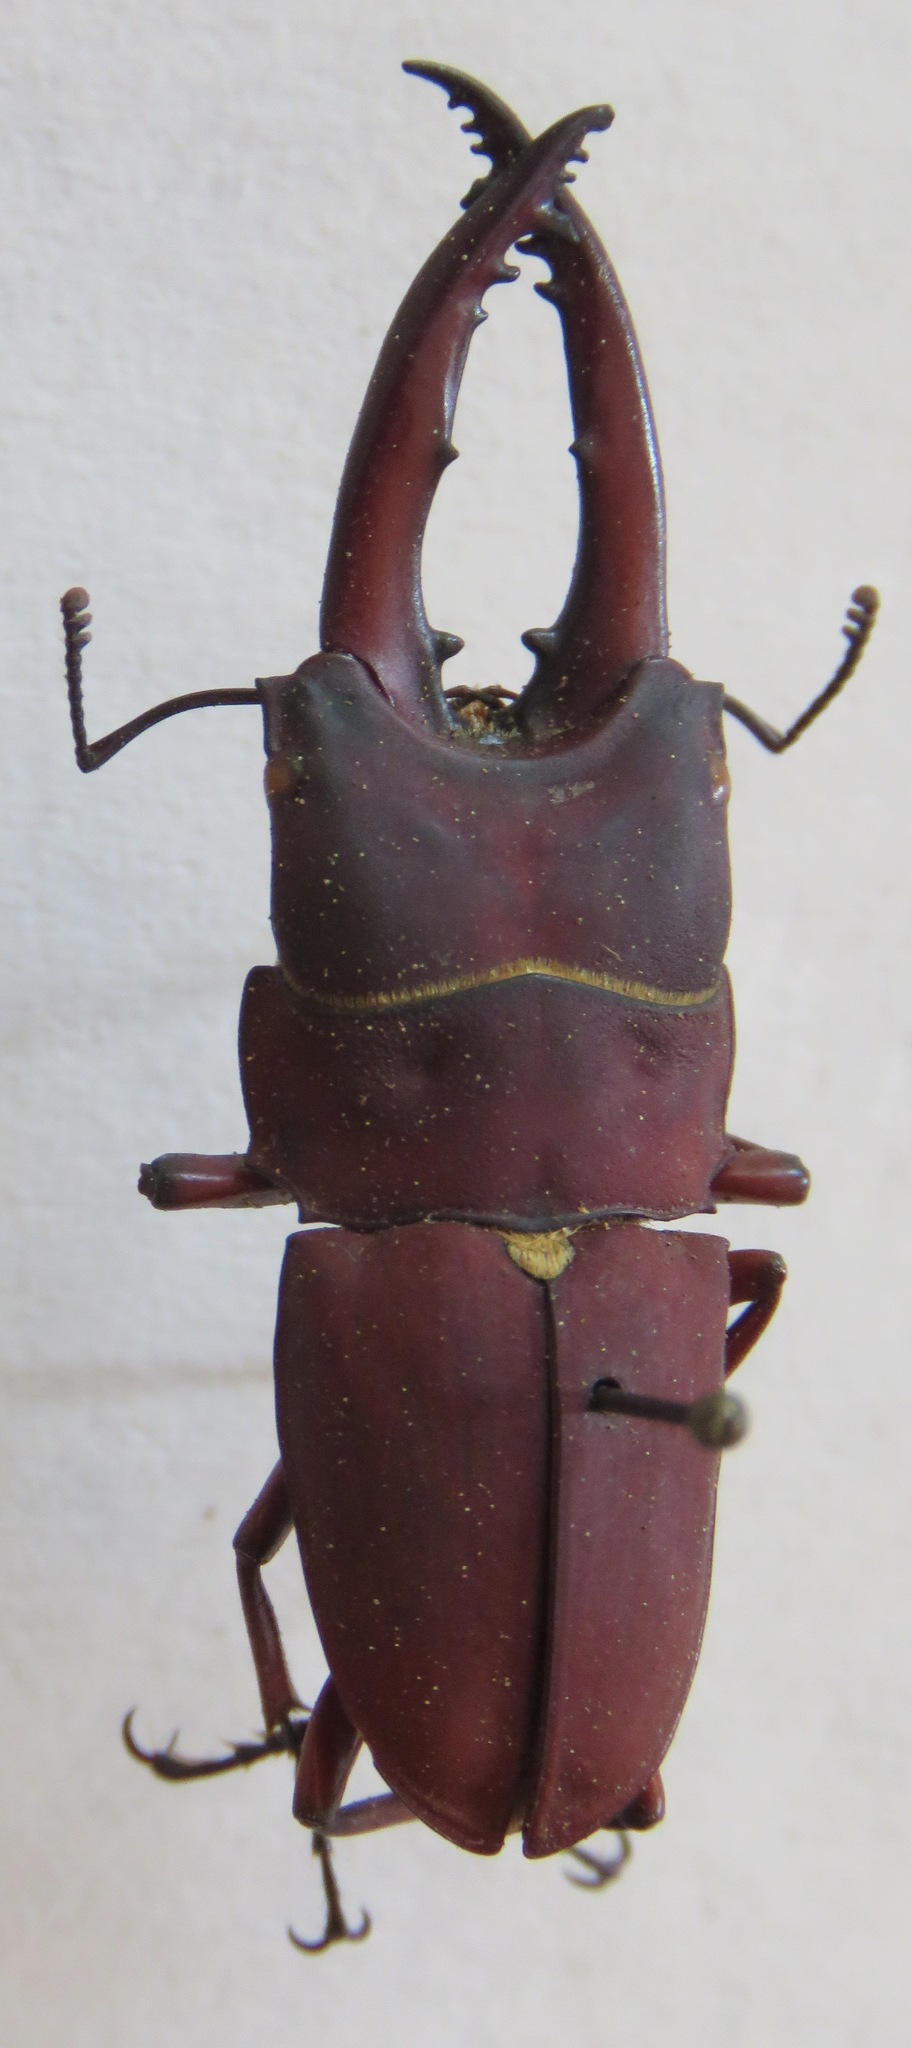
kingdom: Animalia
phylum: Arthropoda
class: Insecta
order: Coleoptera
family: Lucanidae
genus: Leptinopterus
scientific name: Leptinopterus ibex
